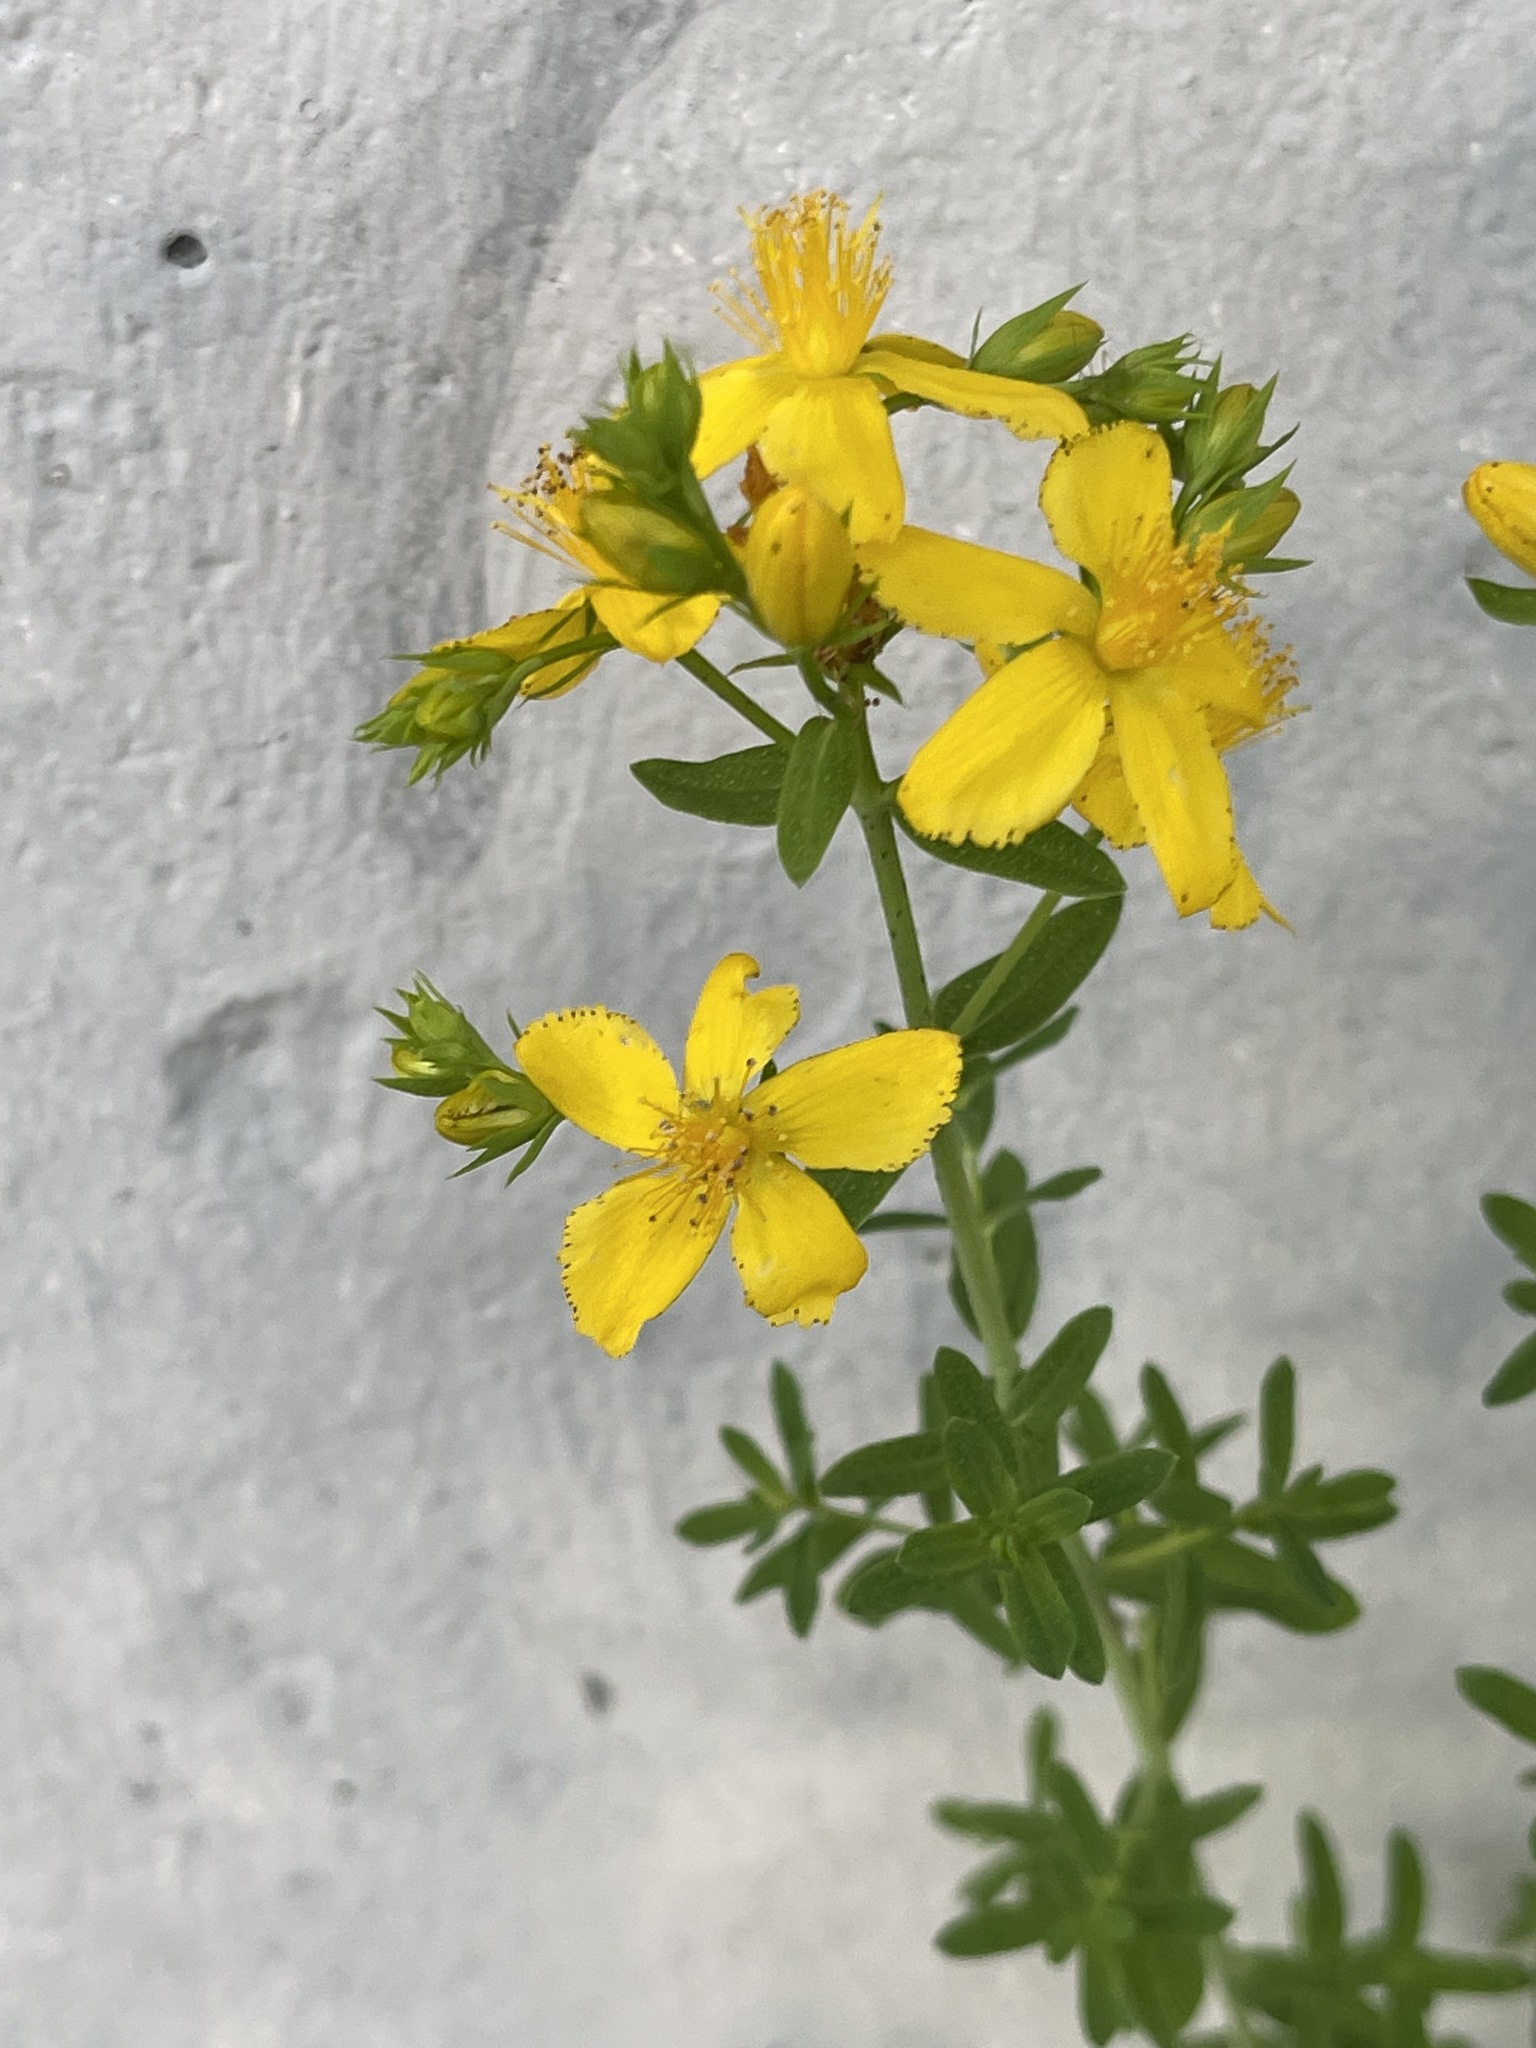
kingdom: Plantae
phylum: Tracheophyta
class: Magnoliopsida
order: Malpighiales
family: Hypericaceae
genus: Hypericum
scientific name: Hypericum perforatum
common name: Common st. johnswort
